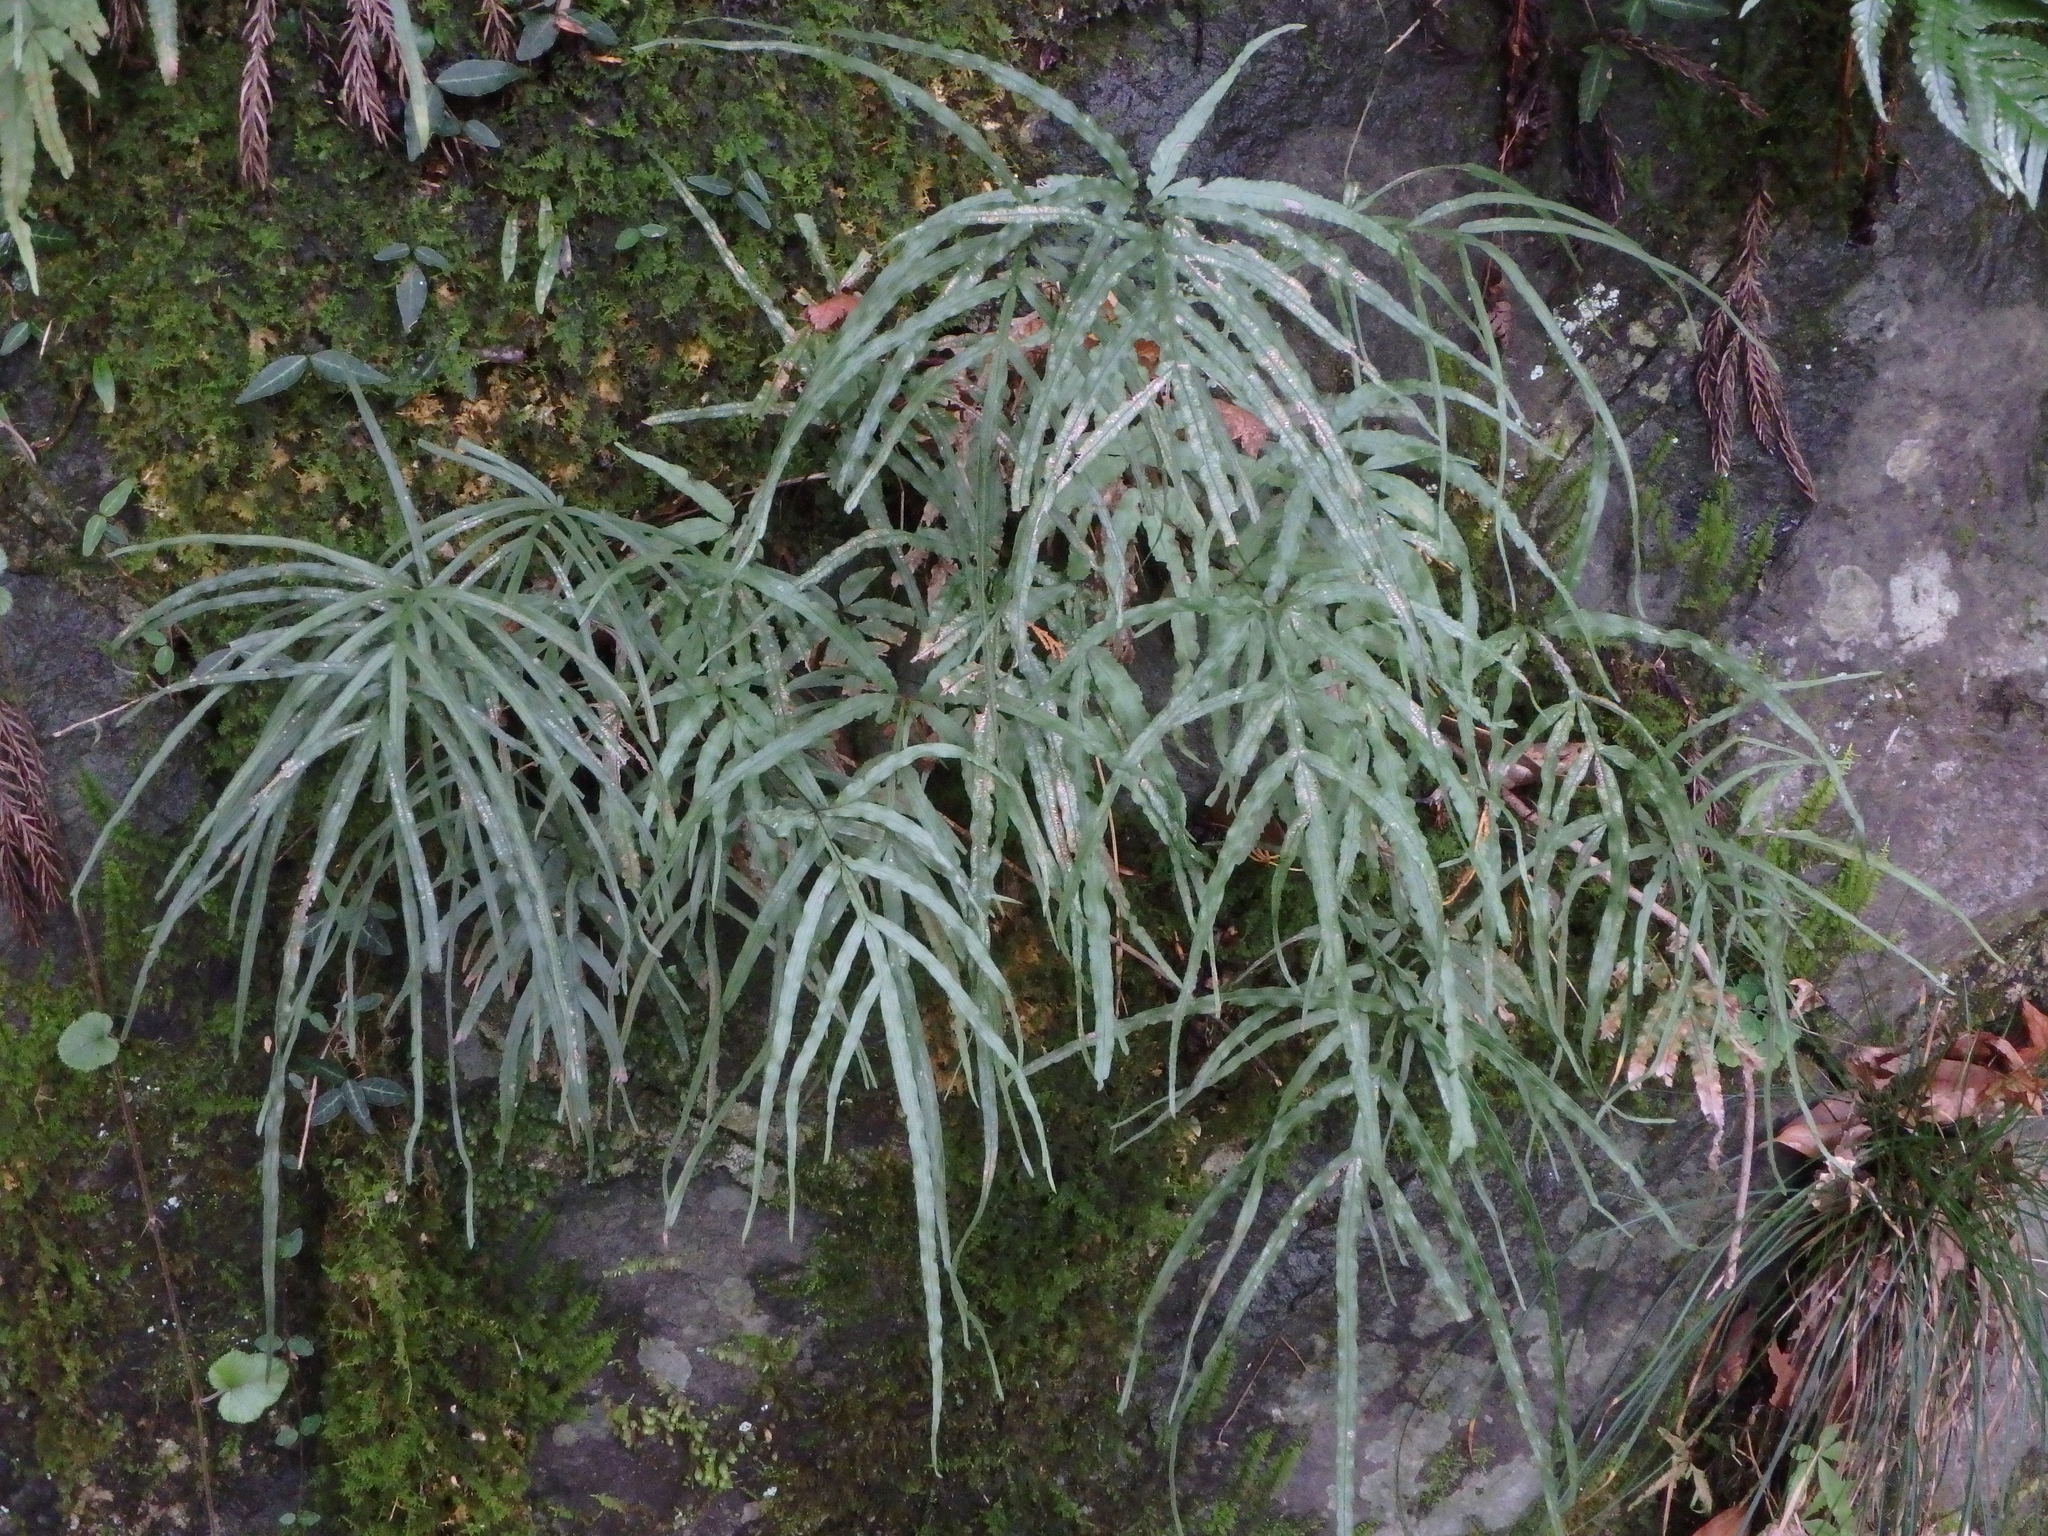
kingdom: Plantae
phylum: Tracheophyta
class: Polypodiopsida
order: Polypodiales
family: Pteridaceae
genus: Pteris
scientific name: Pteris multifida
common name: Spider brake
